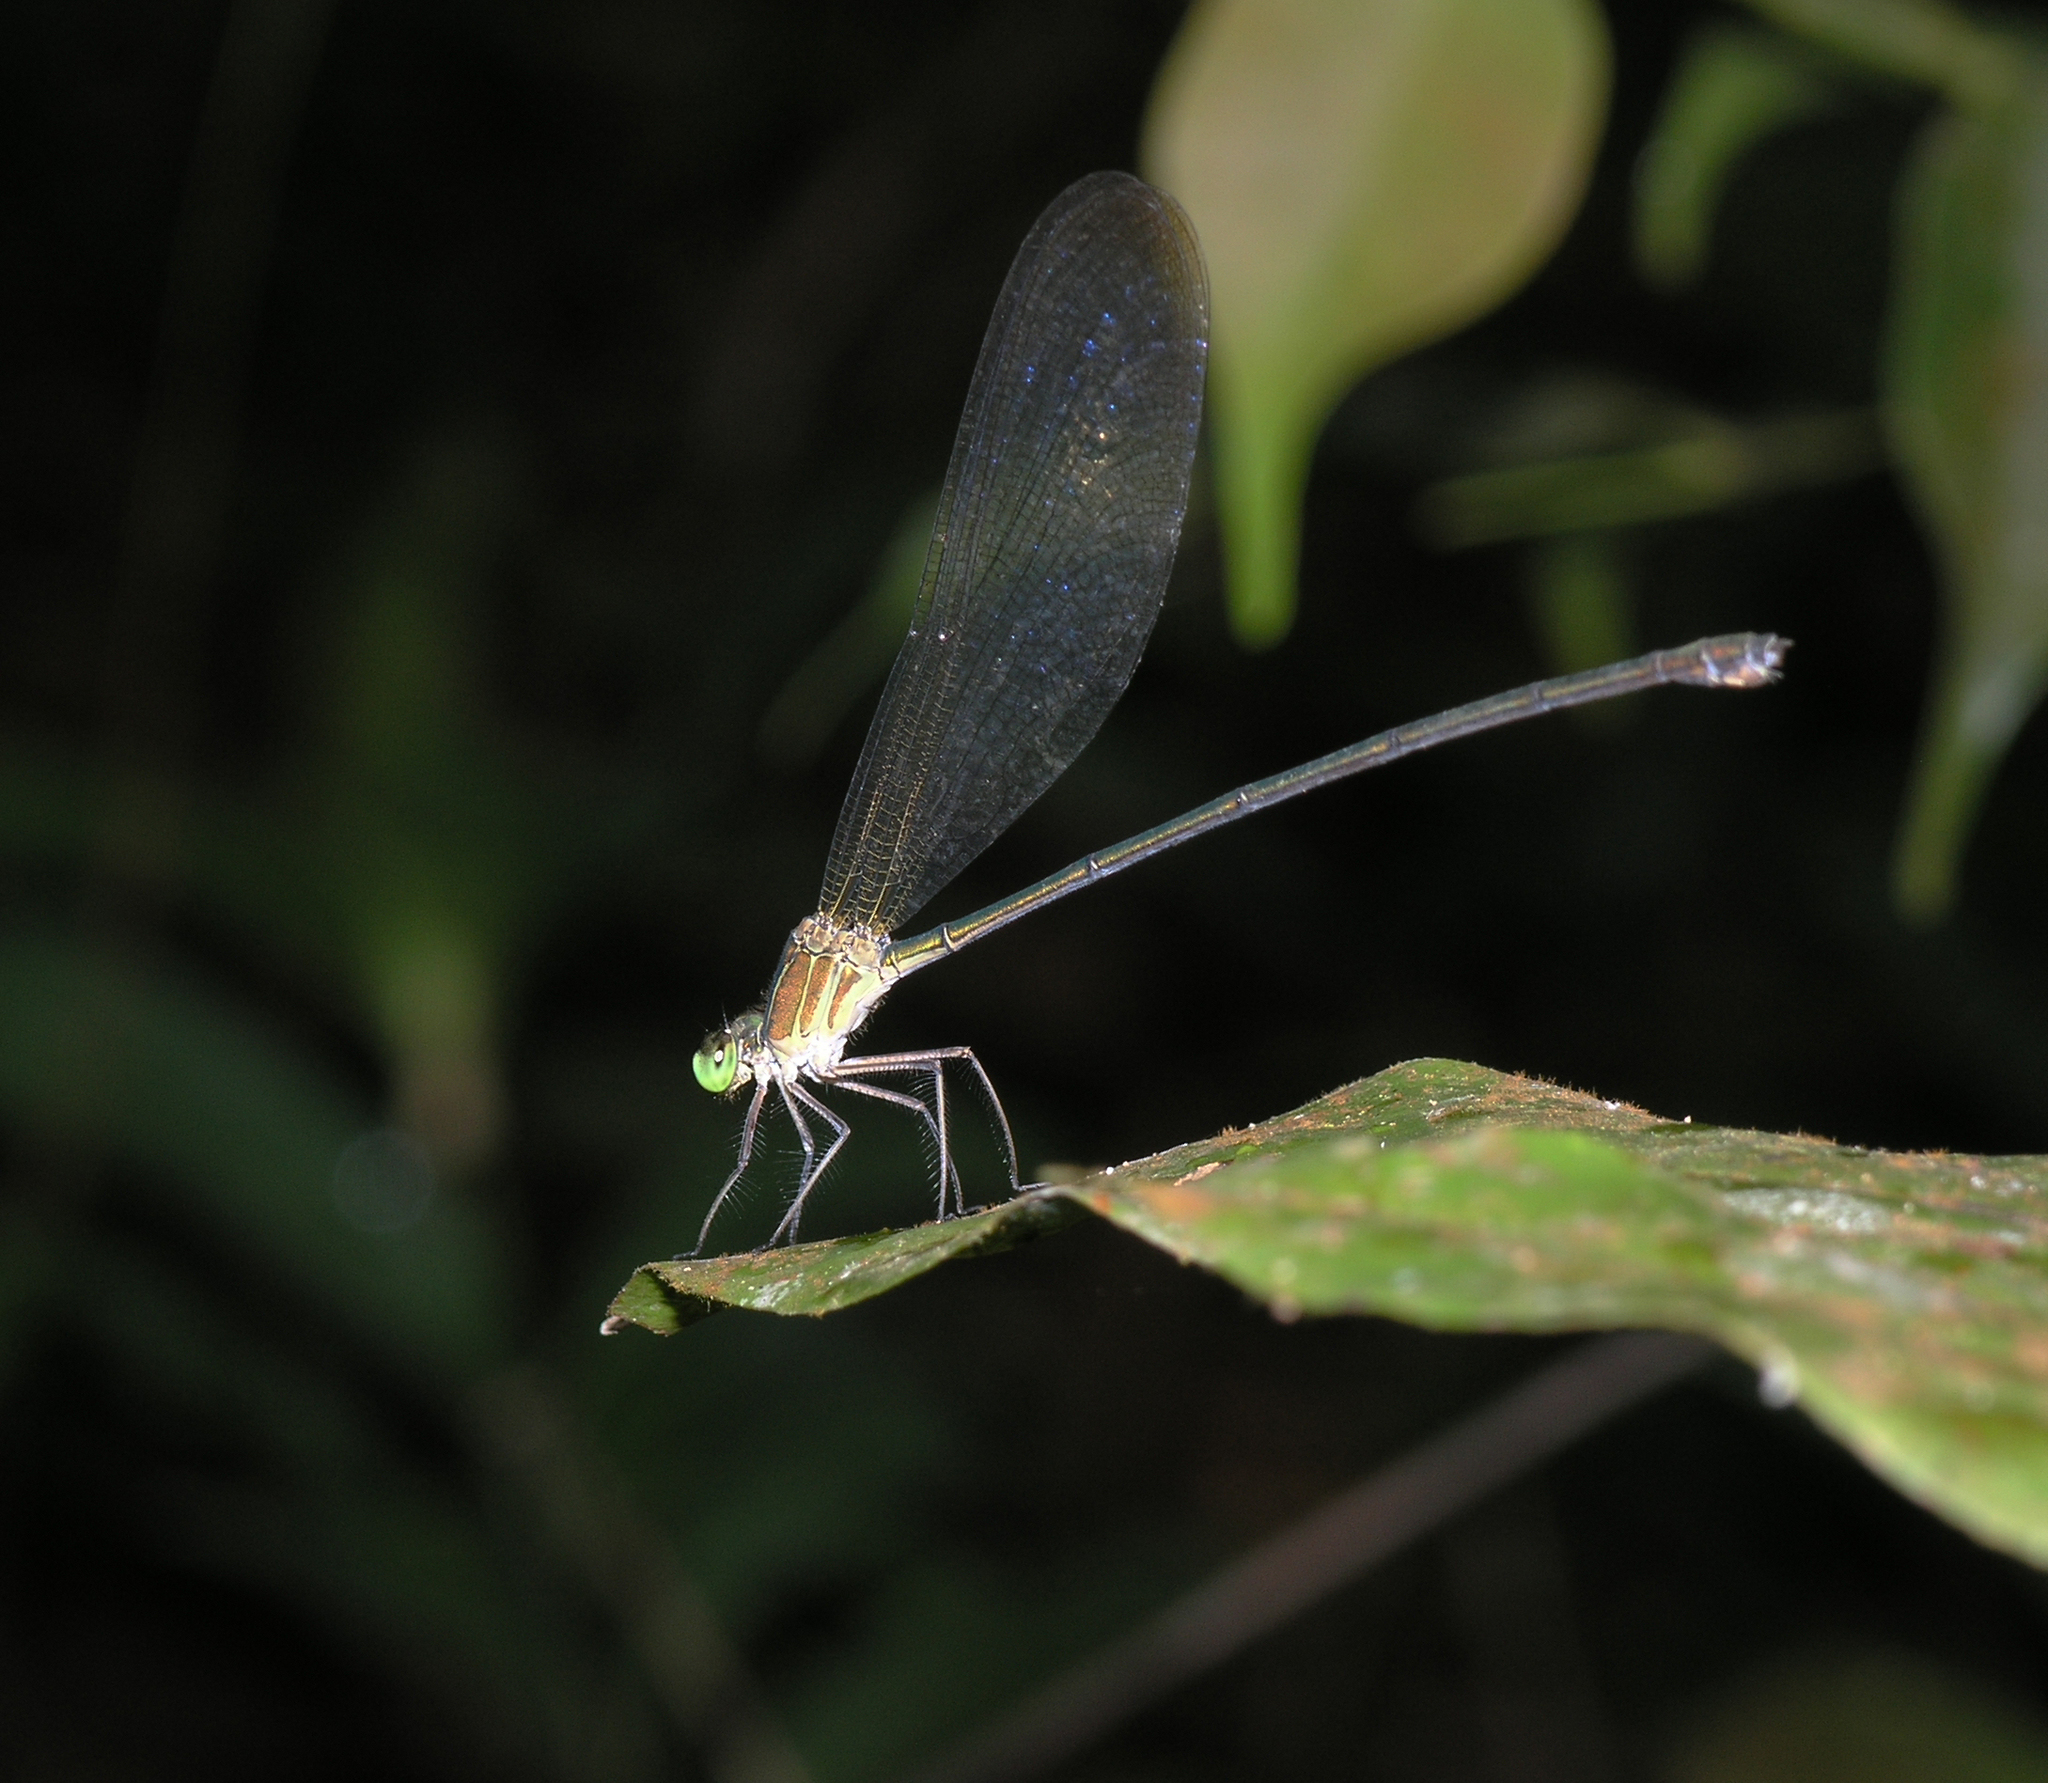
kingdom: Animalia
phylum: Arthropoda
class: Insecta
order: Odonata
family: Calopterygidae
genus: Vestalis
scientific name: Vestalis gracilis
